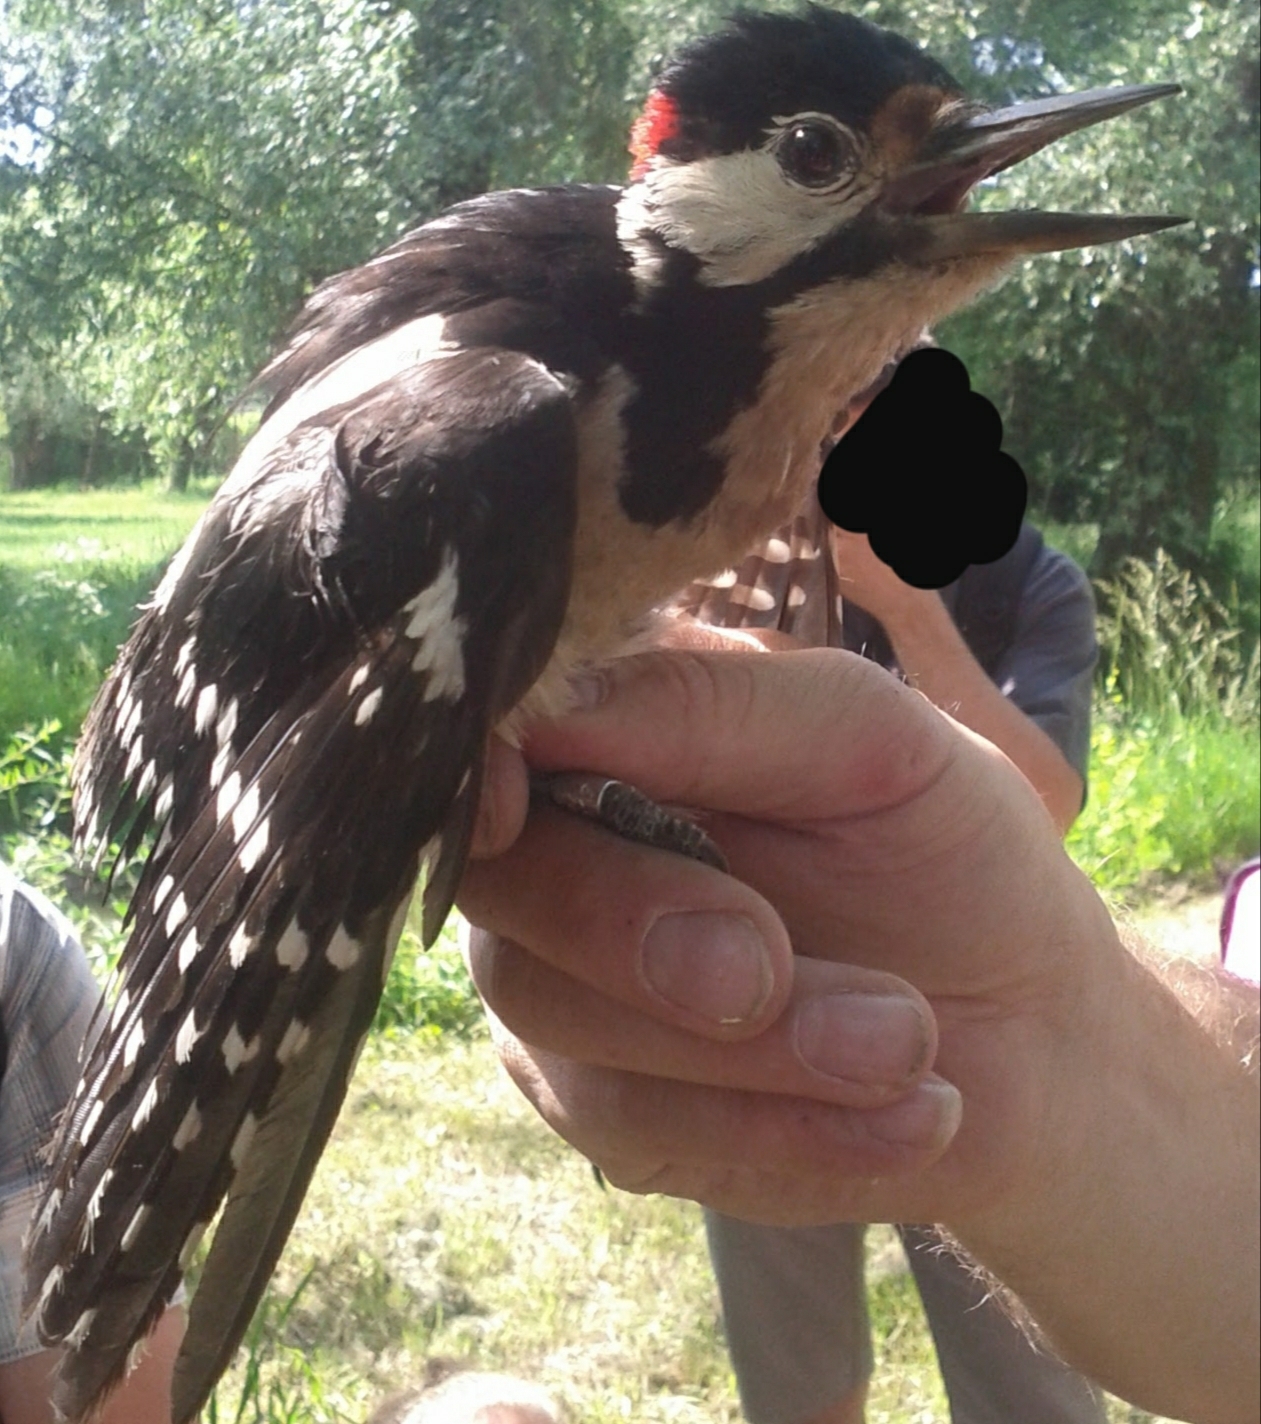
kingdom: Animalia
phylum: Chordata
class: Aves
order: Piciformes
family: Picidae
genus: Dendrocopos
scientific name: Dendrocopos major
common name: Great spotted woodpecker
